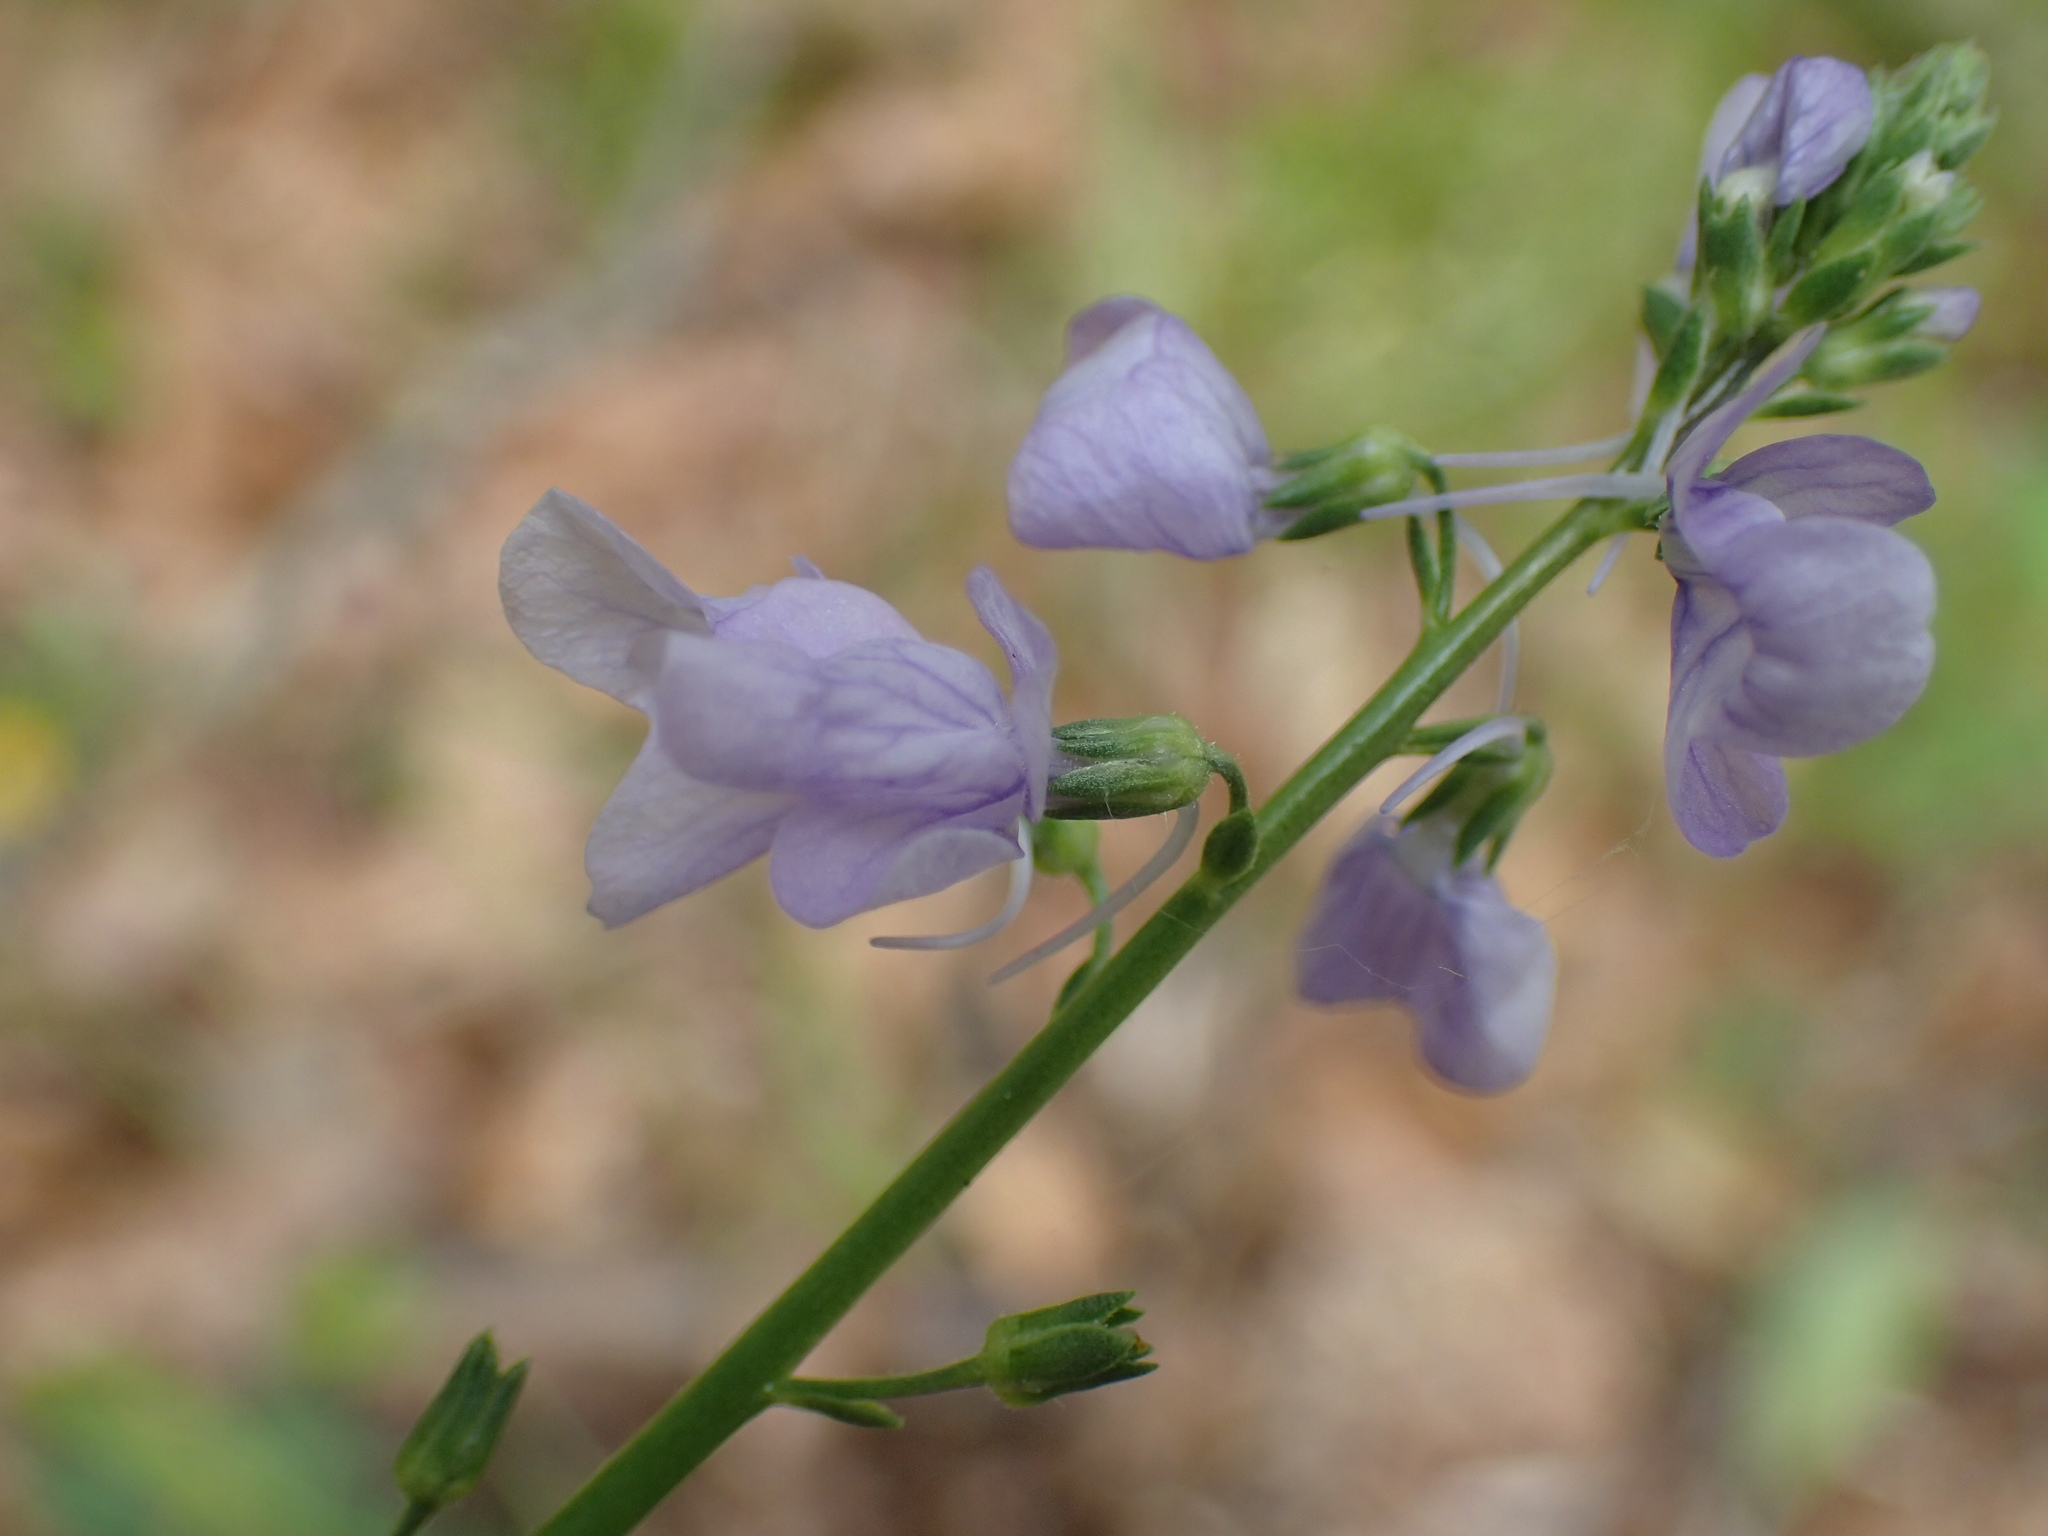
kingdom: Plantae
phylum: Tracheophyta
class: Magnoliopsida
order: Lamiales
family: Plantaginaceae
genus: Nuttallanthus
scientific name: Nuttallanthus texanus
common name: Texas toadflax
